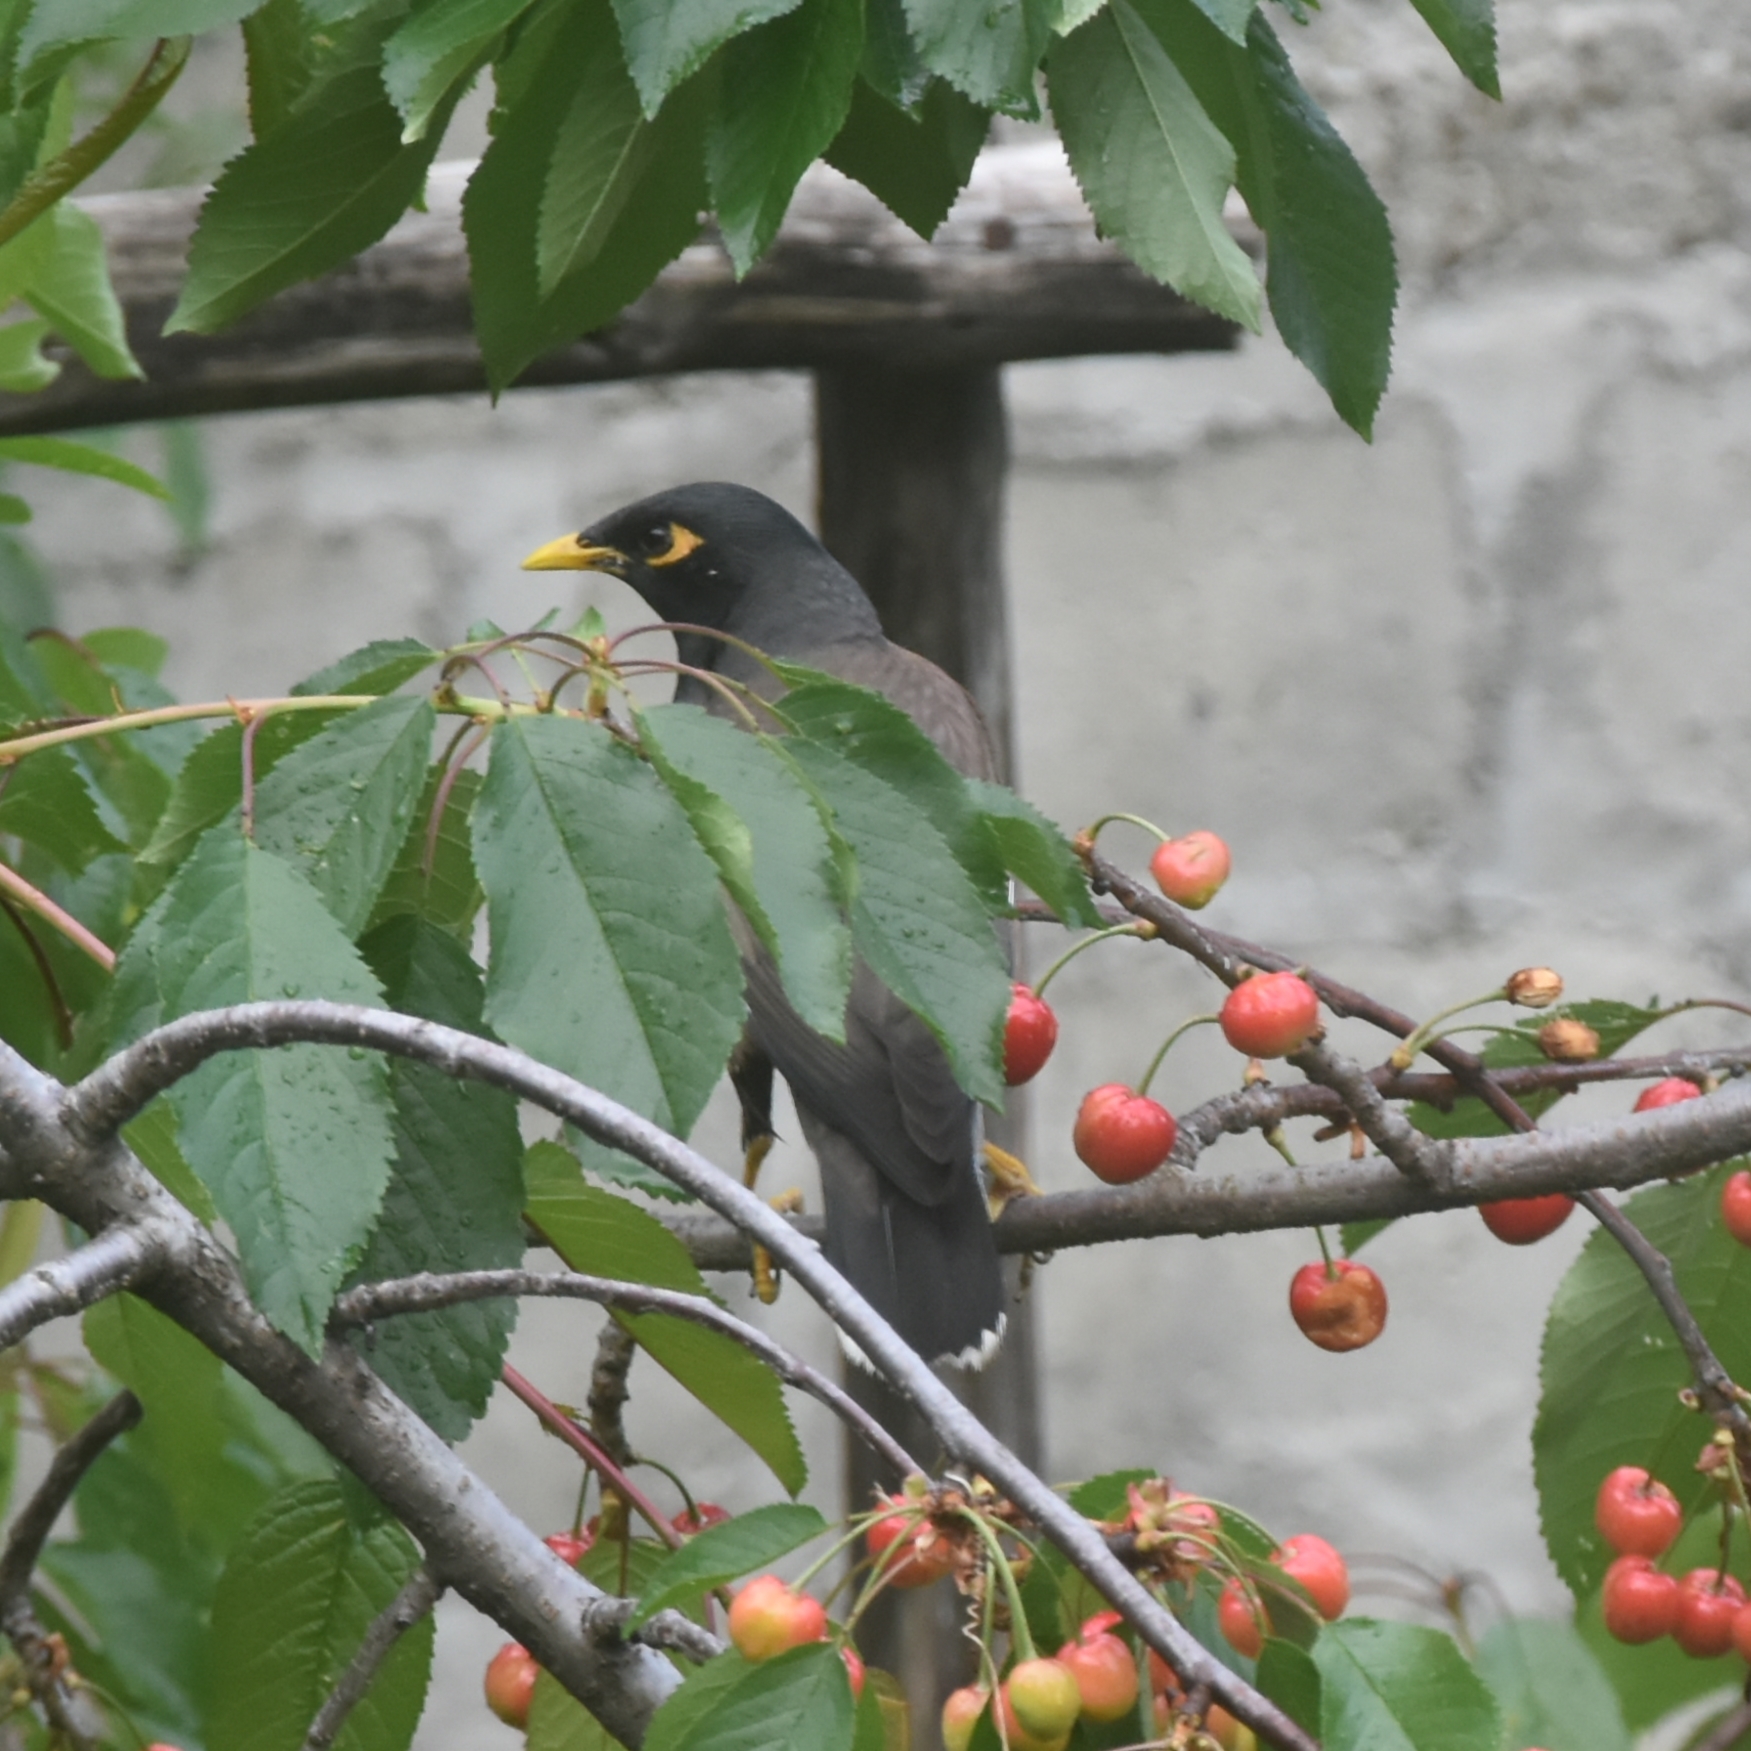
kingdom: Animalia
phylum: Chordata
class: Aves
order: Passeriformes
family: Sturnidae
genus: Acridotheres
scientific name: Acridotheres tristis
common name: Common myna
